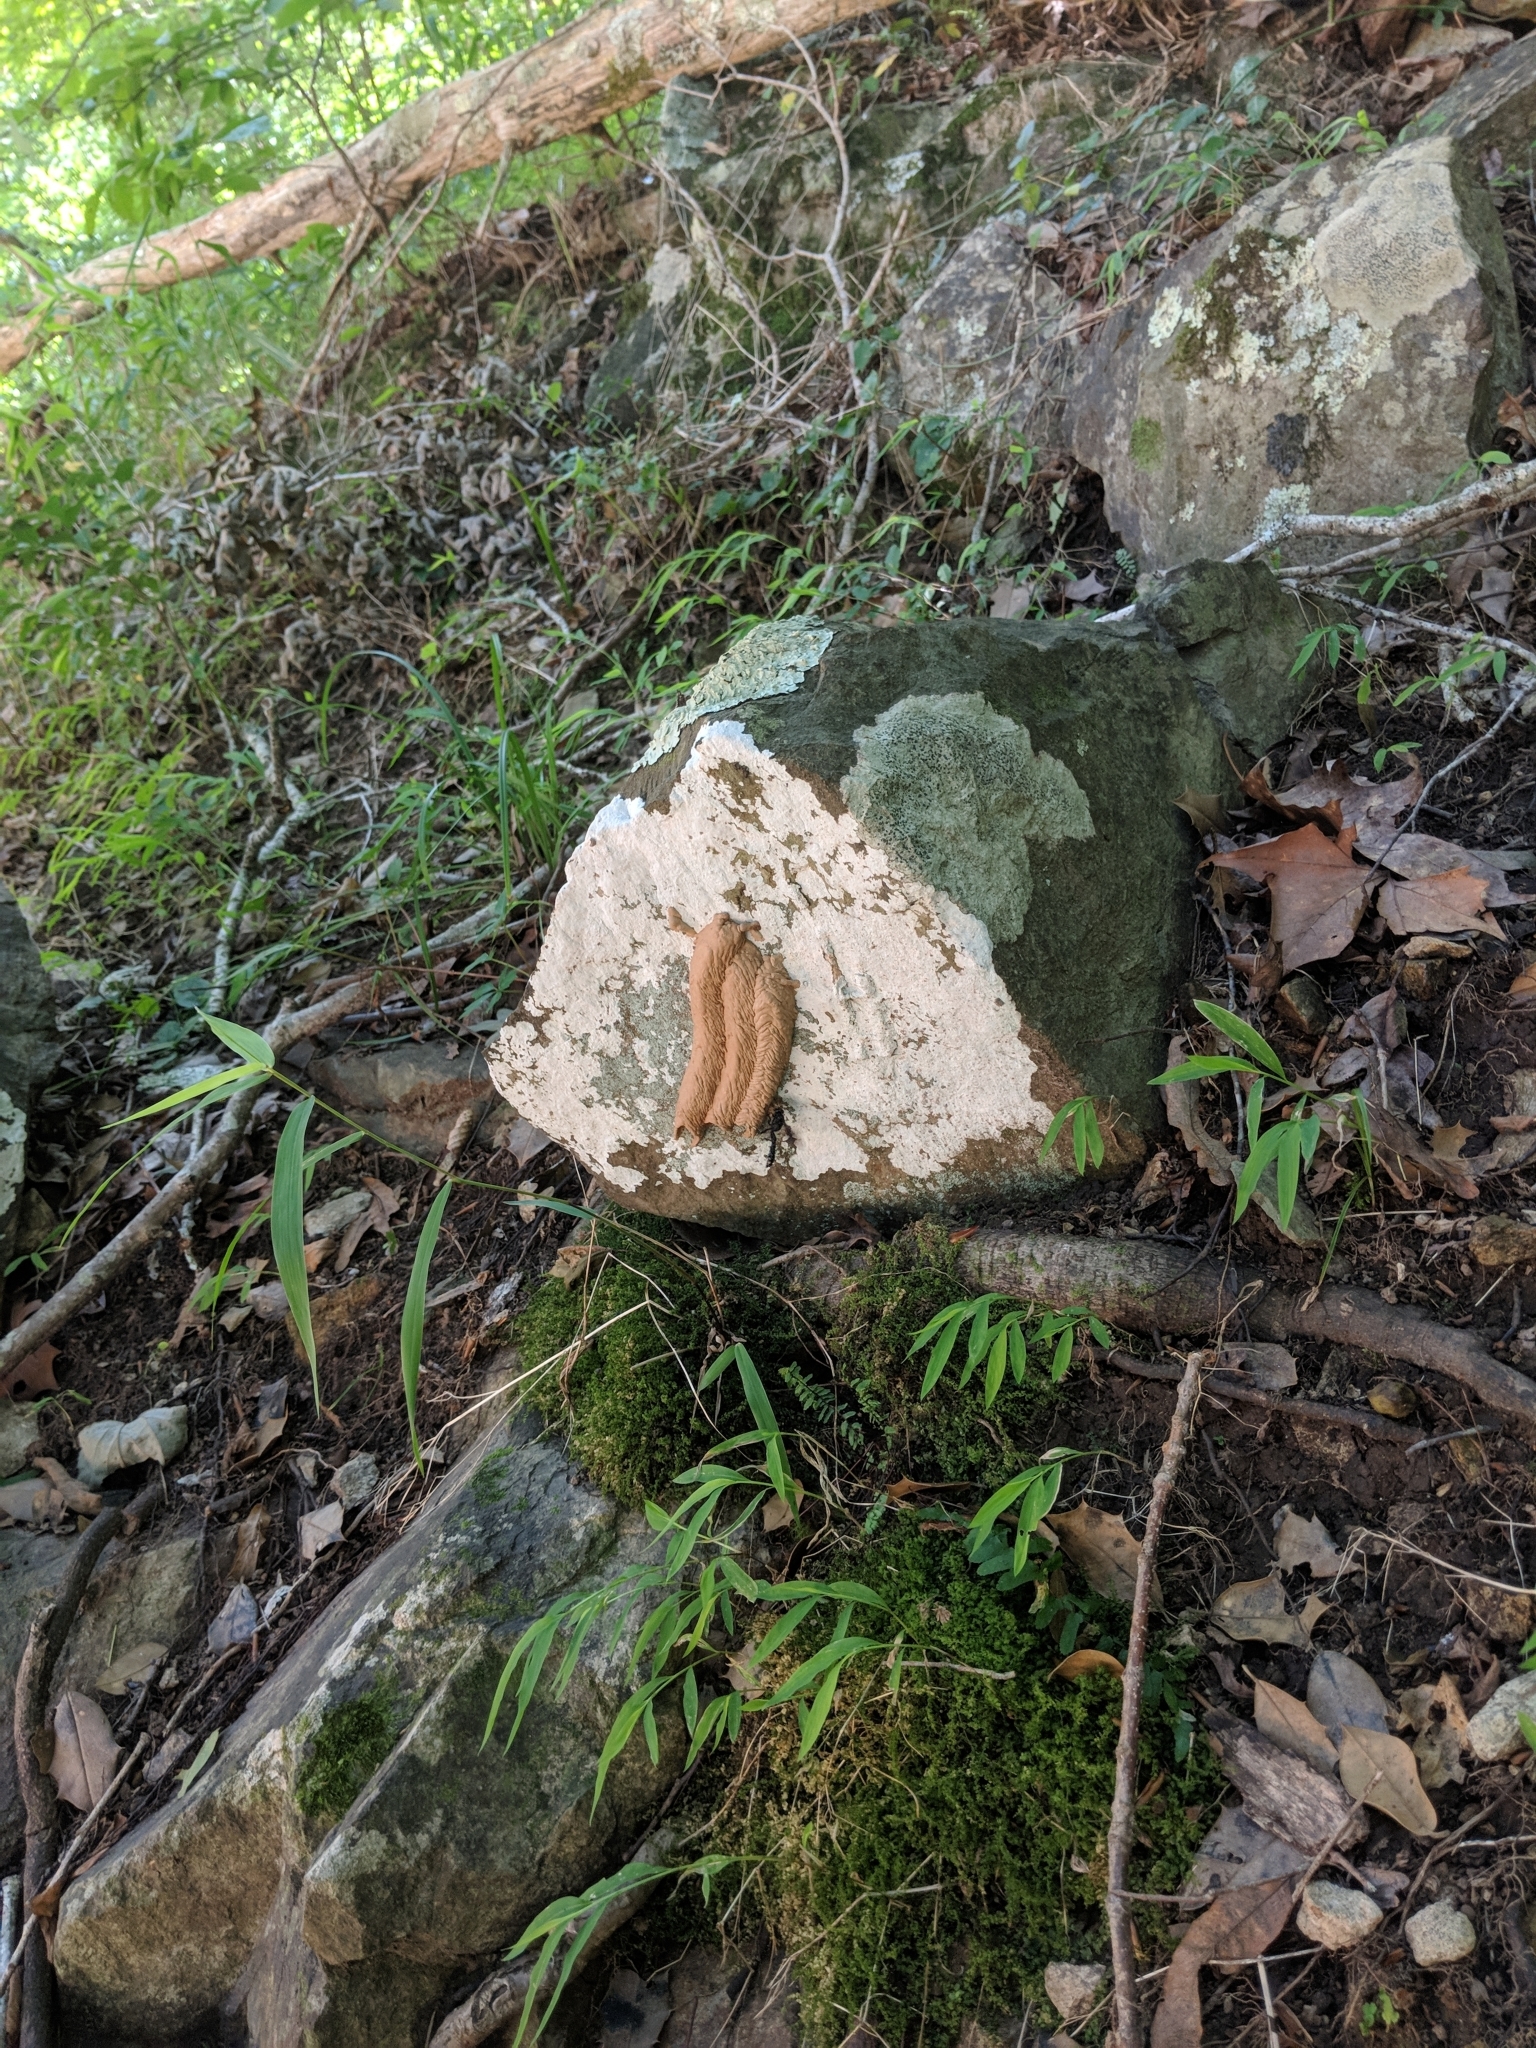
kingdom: Animalia
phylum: Arthropoda
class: Insecta
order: Hymenoptera
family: Crabronidae
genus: Trypoxylon
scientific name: Trypoxylon politum
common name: Organ-pipe mud-dauber wasp
